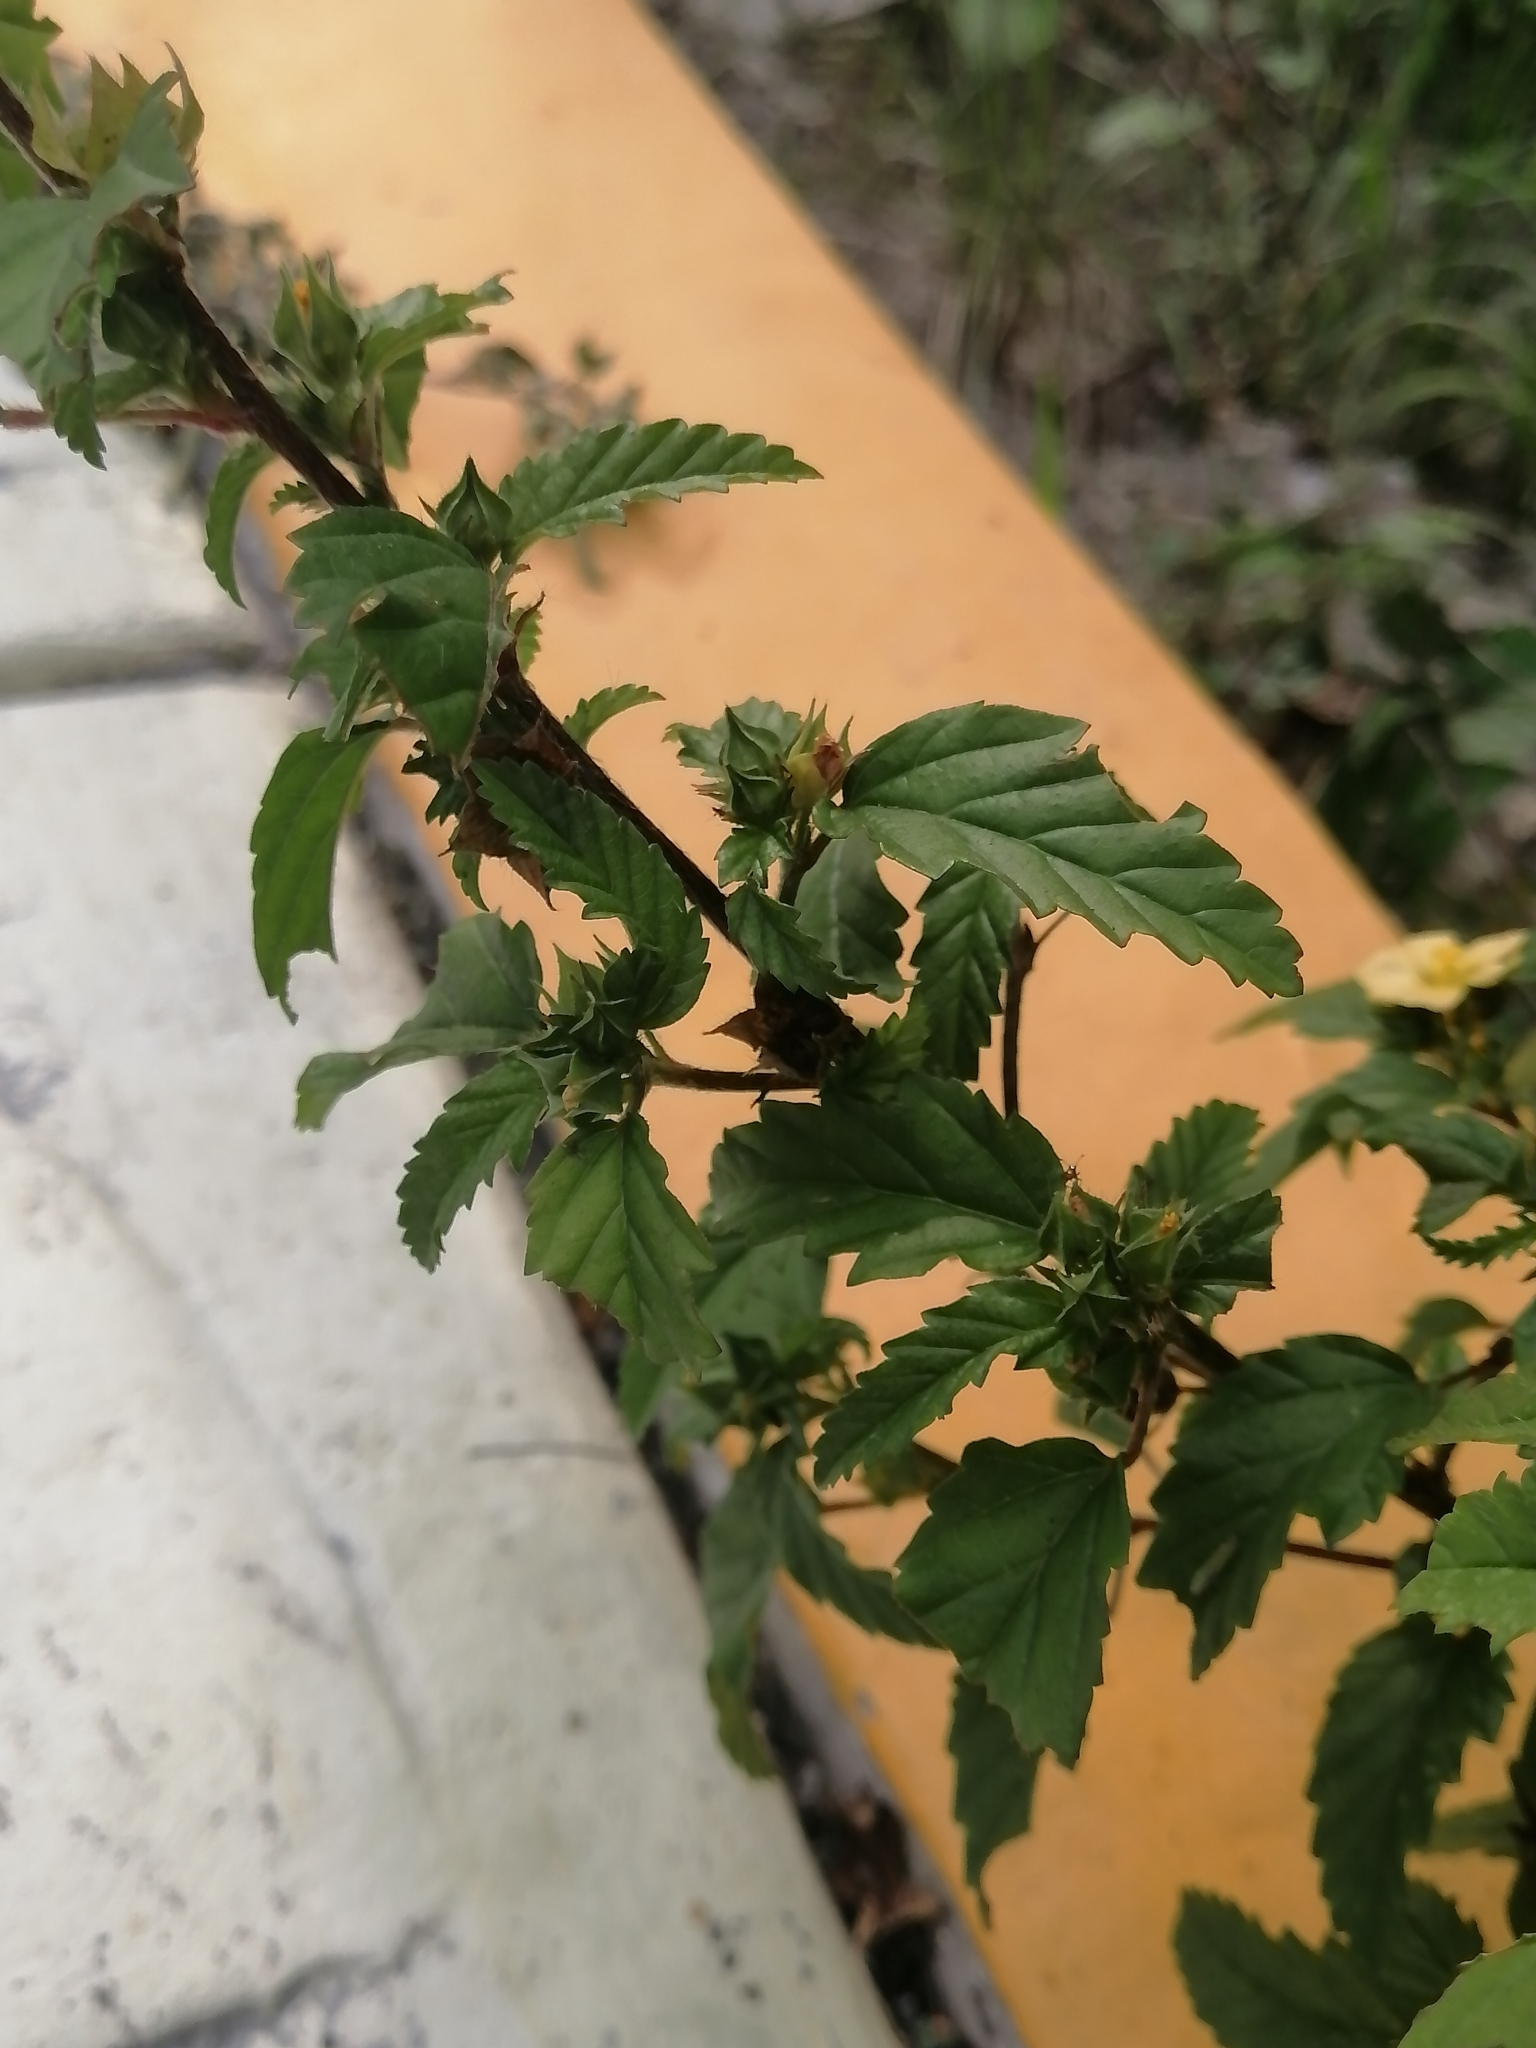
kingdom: Plantae
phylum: Tracheophyta
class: Magnoliopsida
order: Malvales
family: Malvaceae
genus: Malvastrum
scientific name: Malvastrum coromandelianum
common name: Threelobe false mallow
